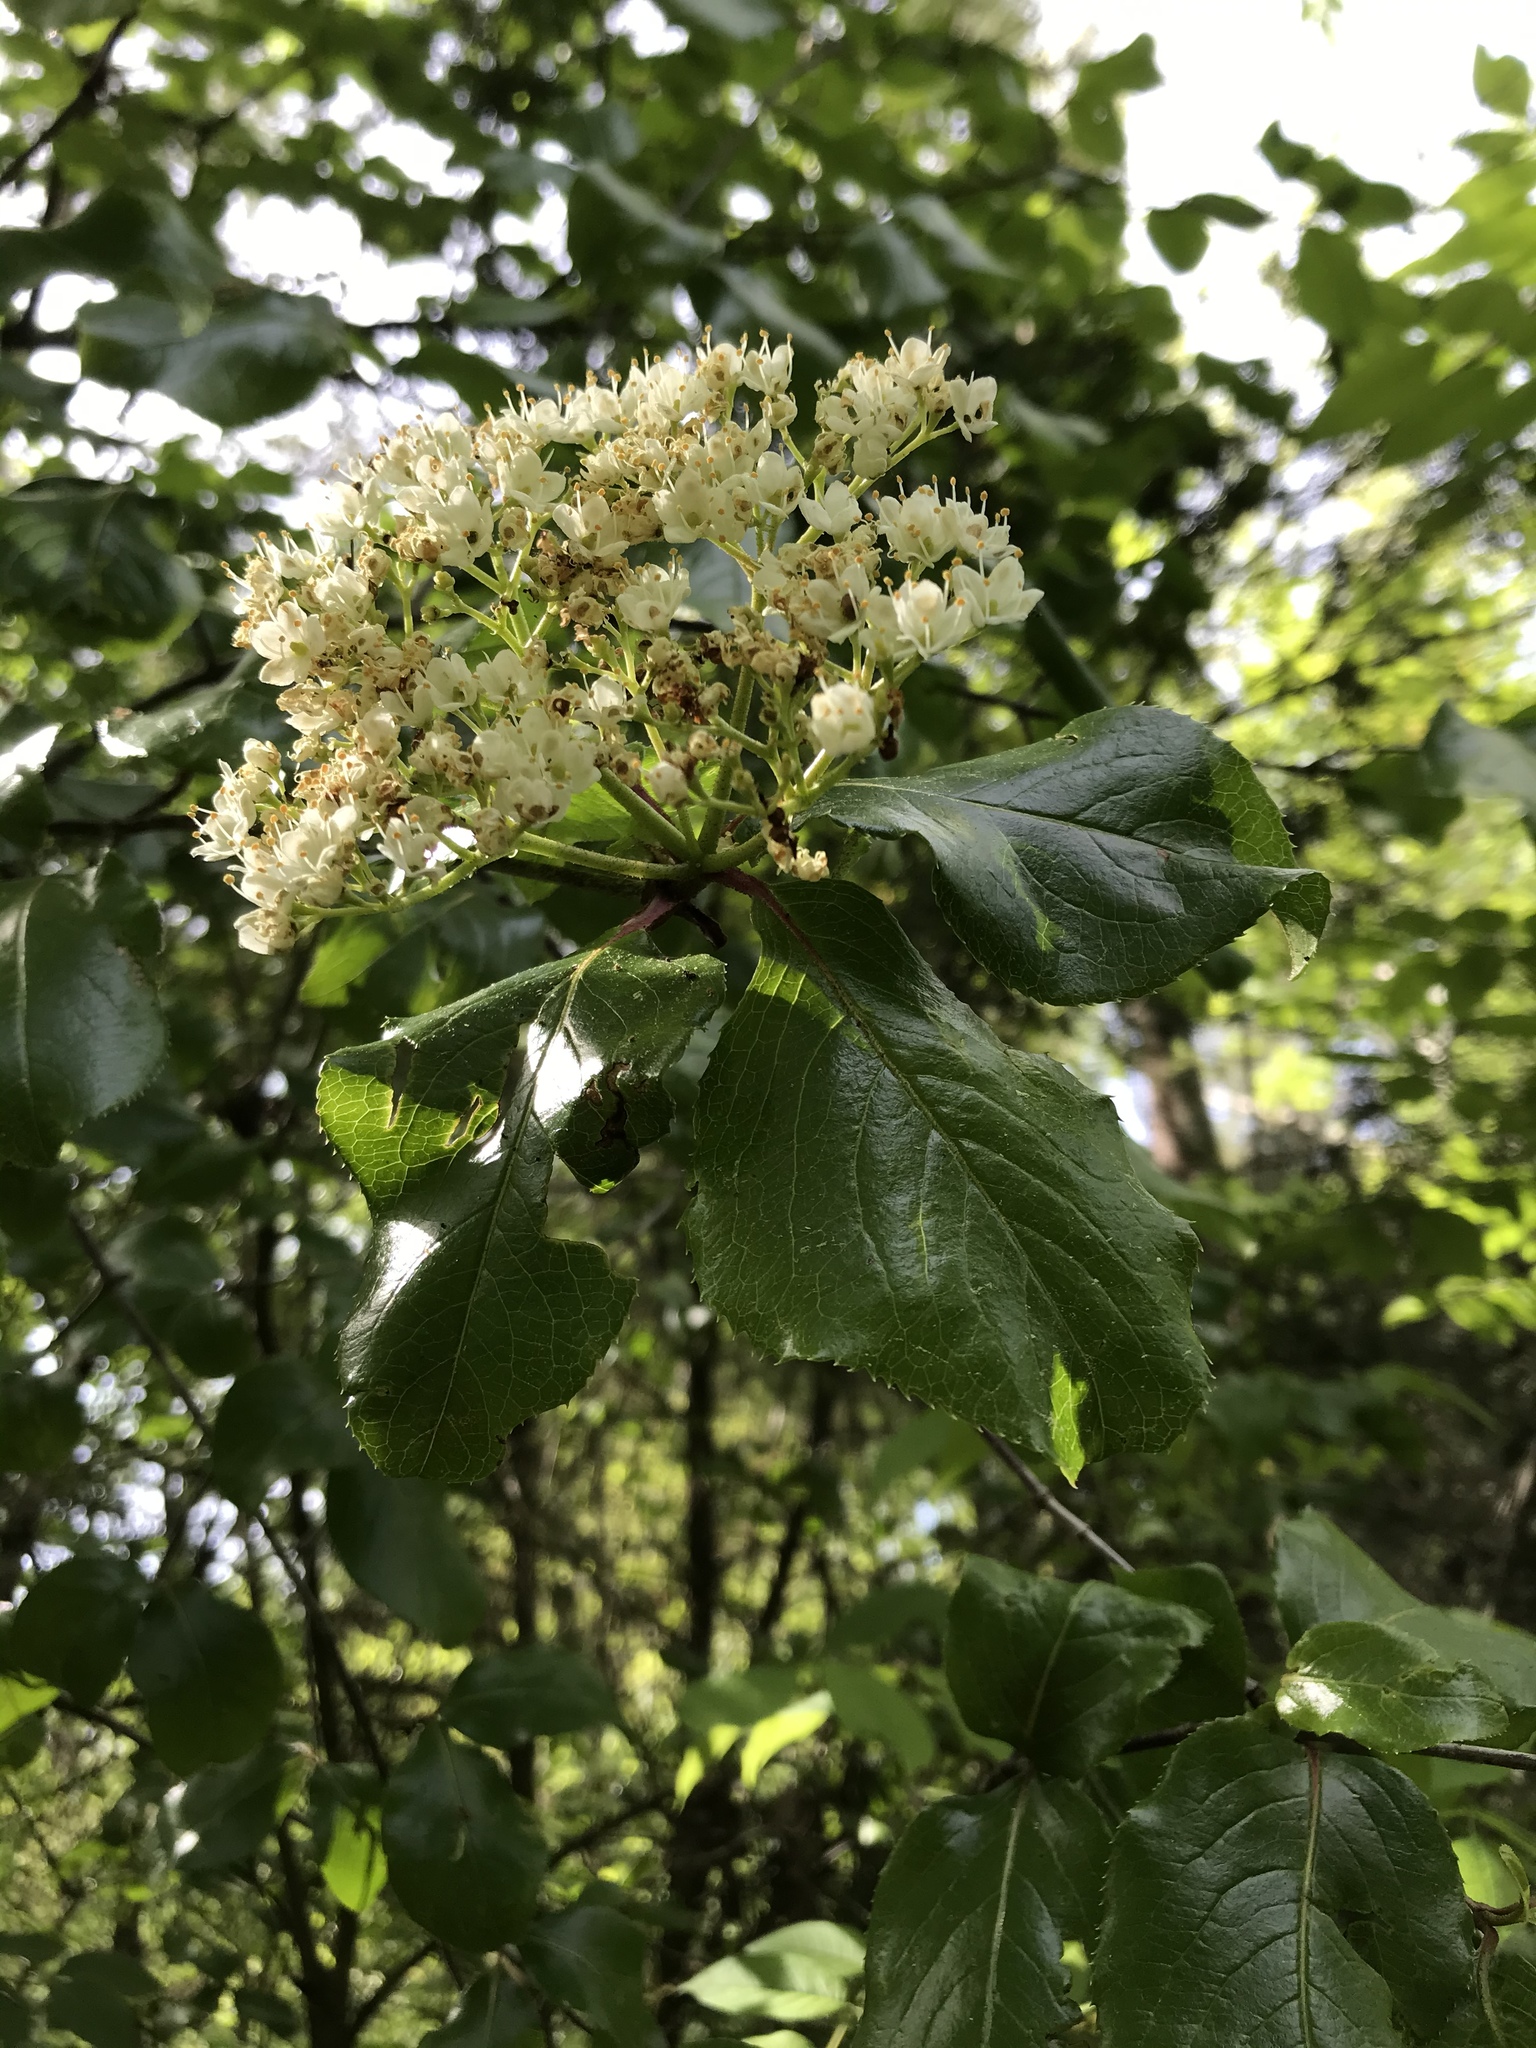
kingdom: Plantae
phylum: Tracheophyta
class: Magnoliopsida
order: Dipsacales
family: Viburnaceae
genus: Viburnum
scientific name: Viburnum rufidulum
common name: Blue haw
